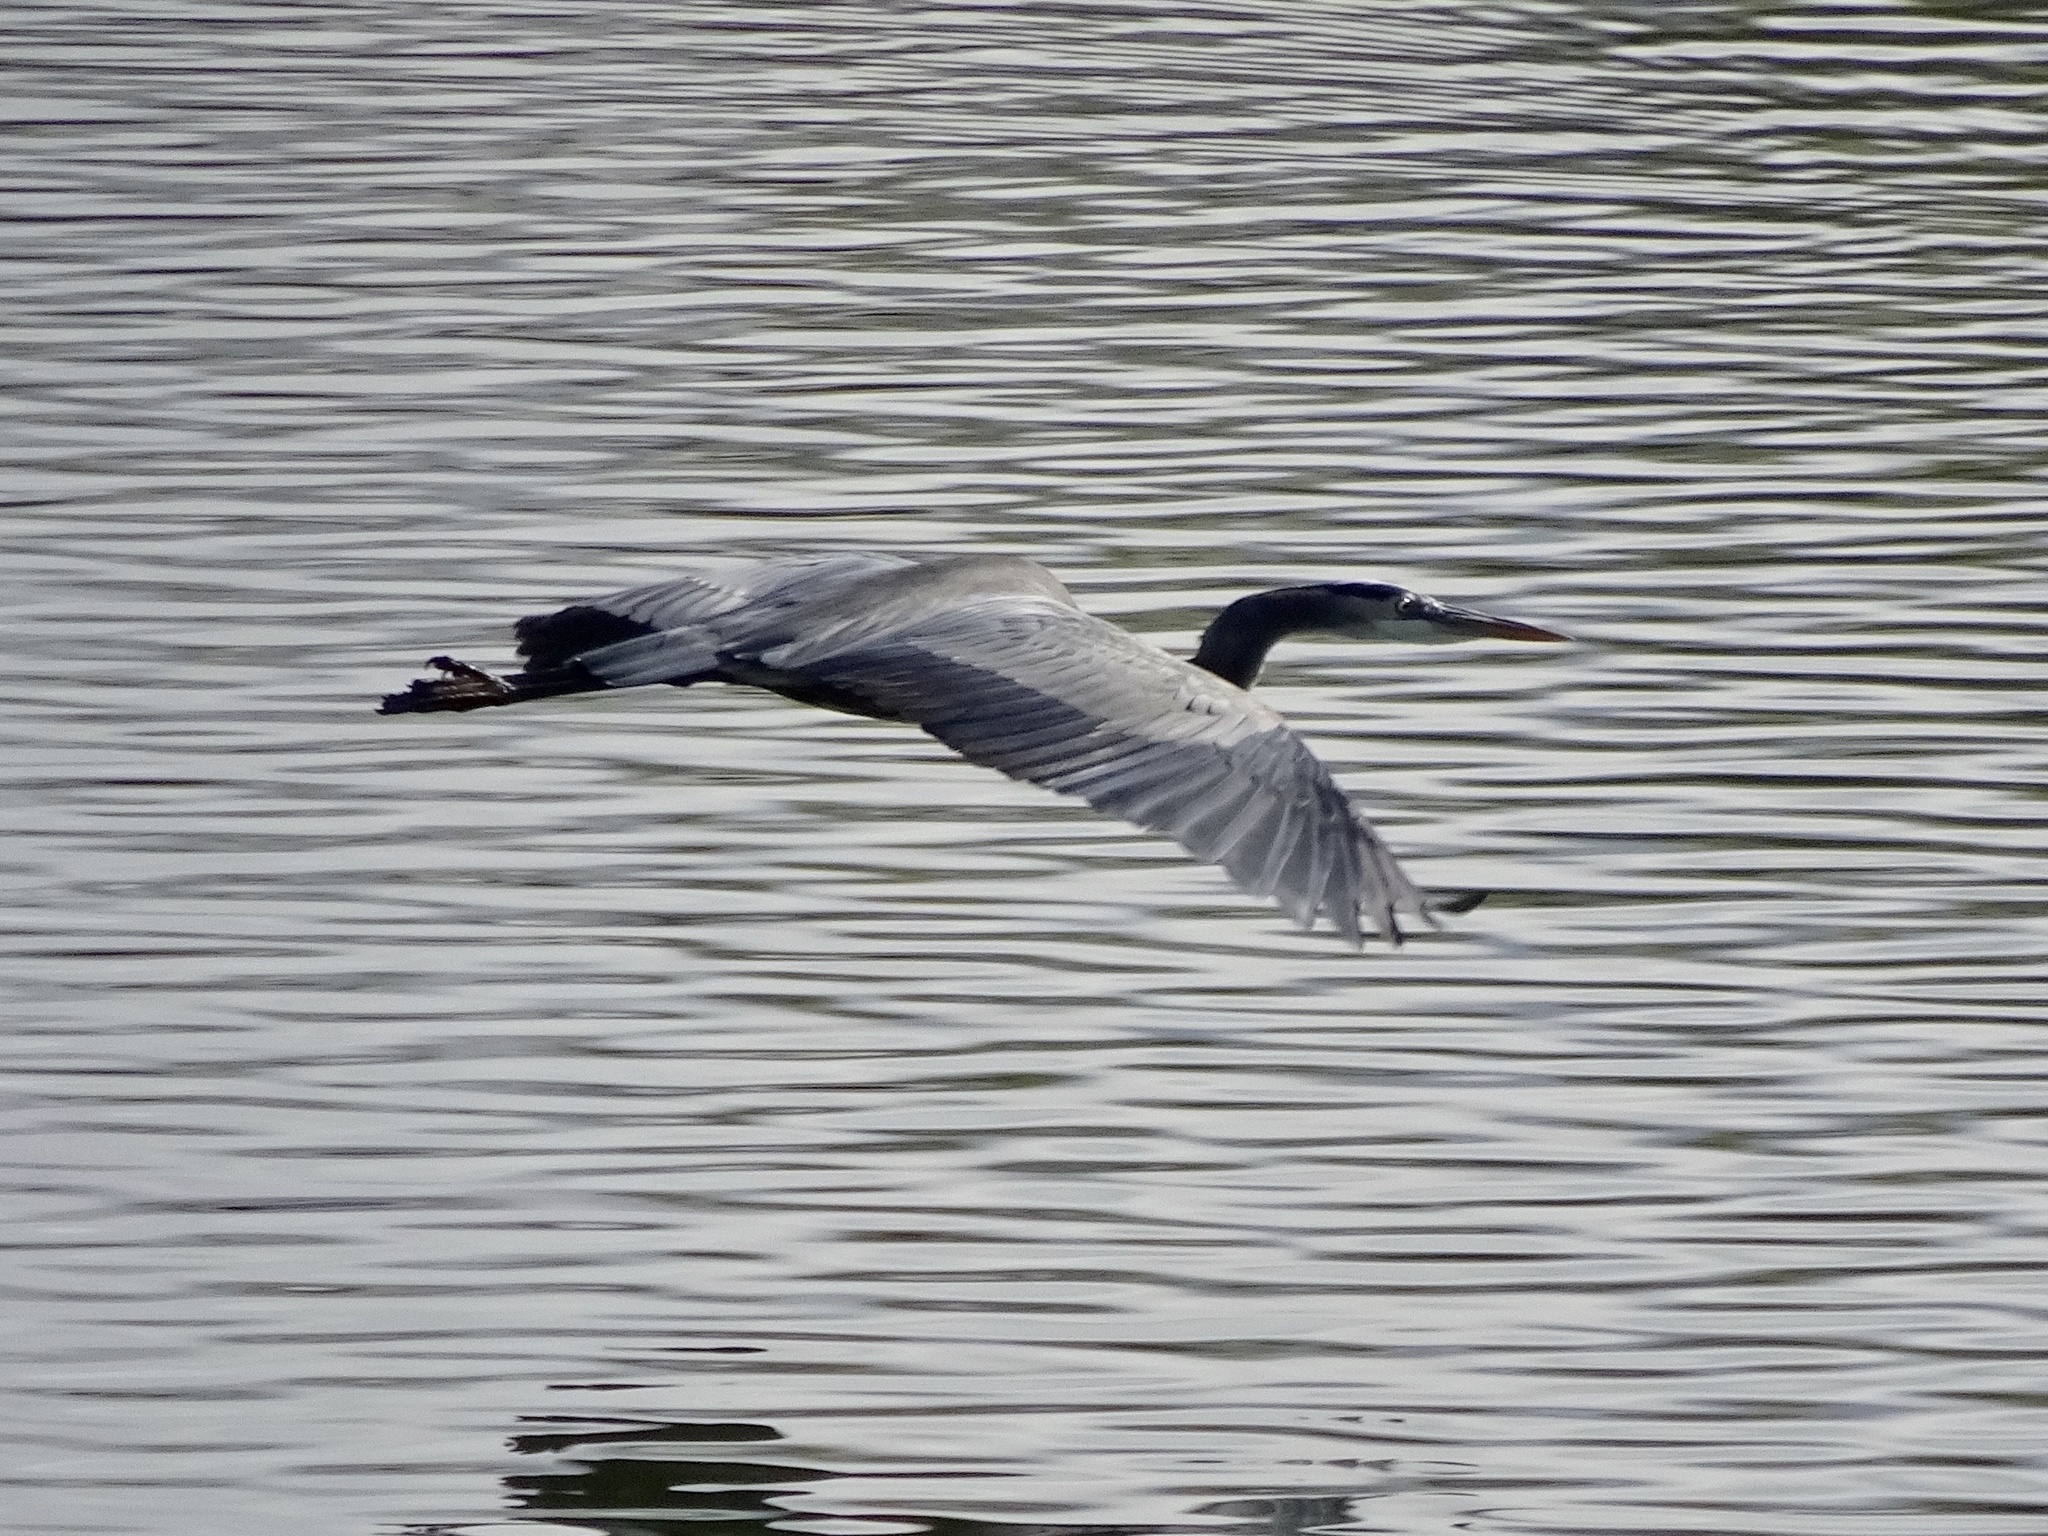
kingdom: Animalia
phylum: Chordata
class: Aves
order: Pelecaniformes
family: Ardeidae
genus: Ardea
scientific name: Ardea herodias
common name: Great blue heron
